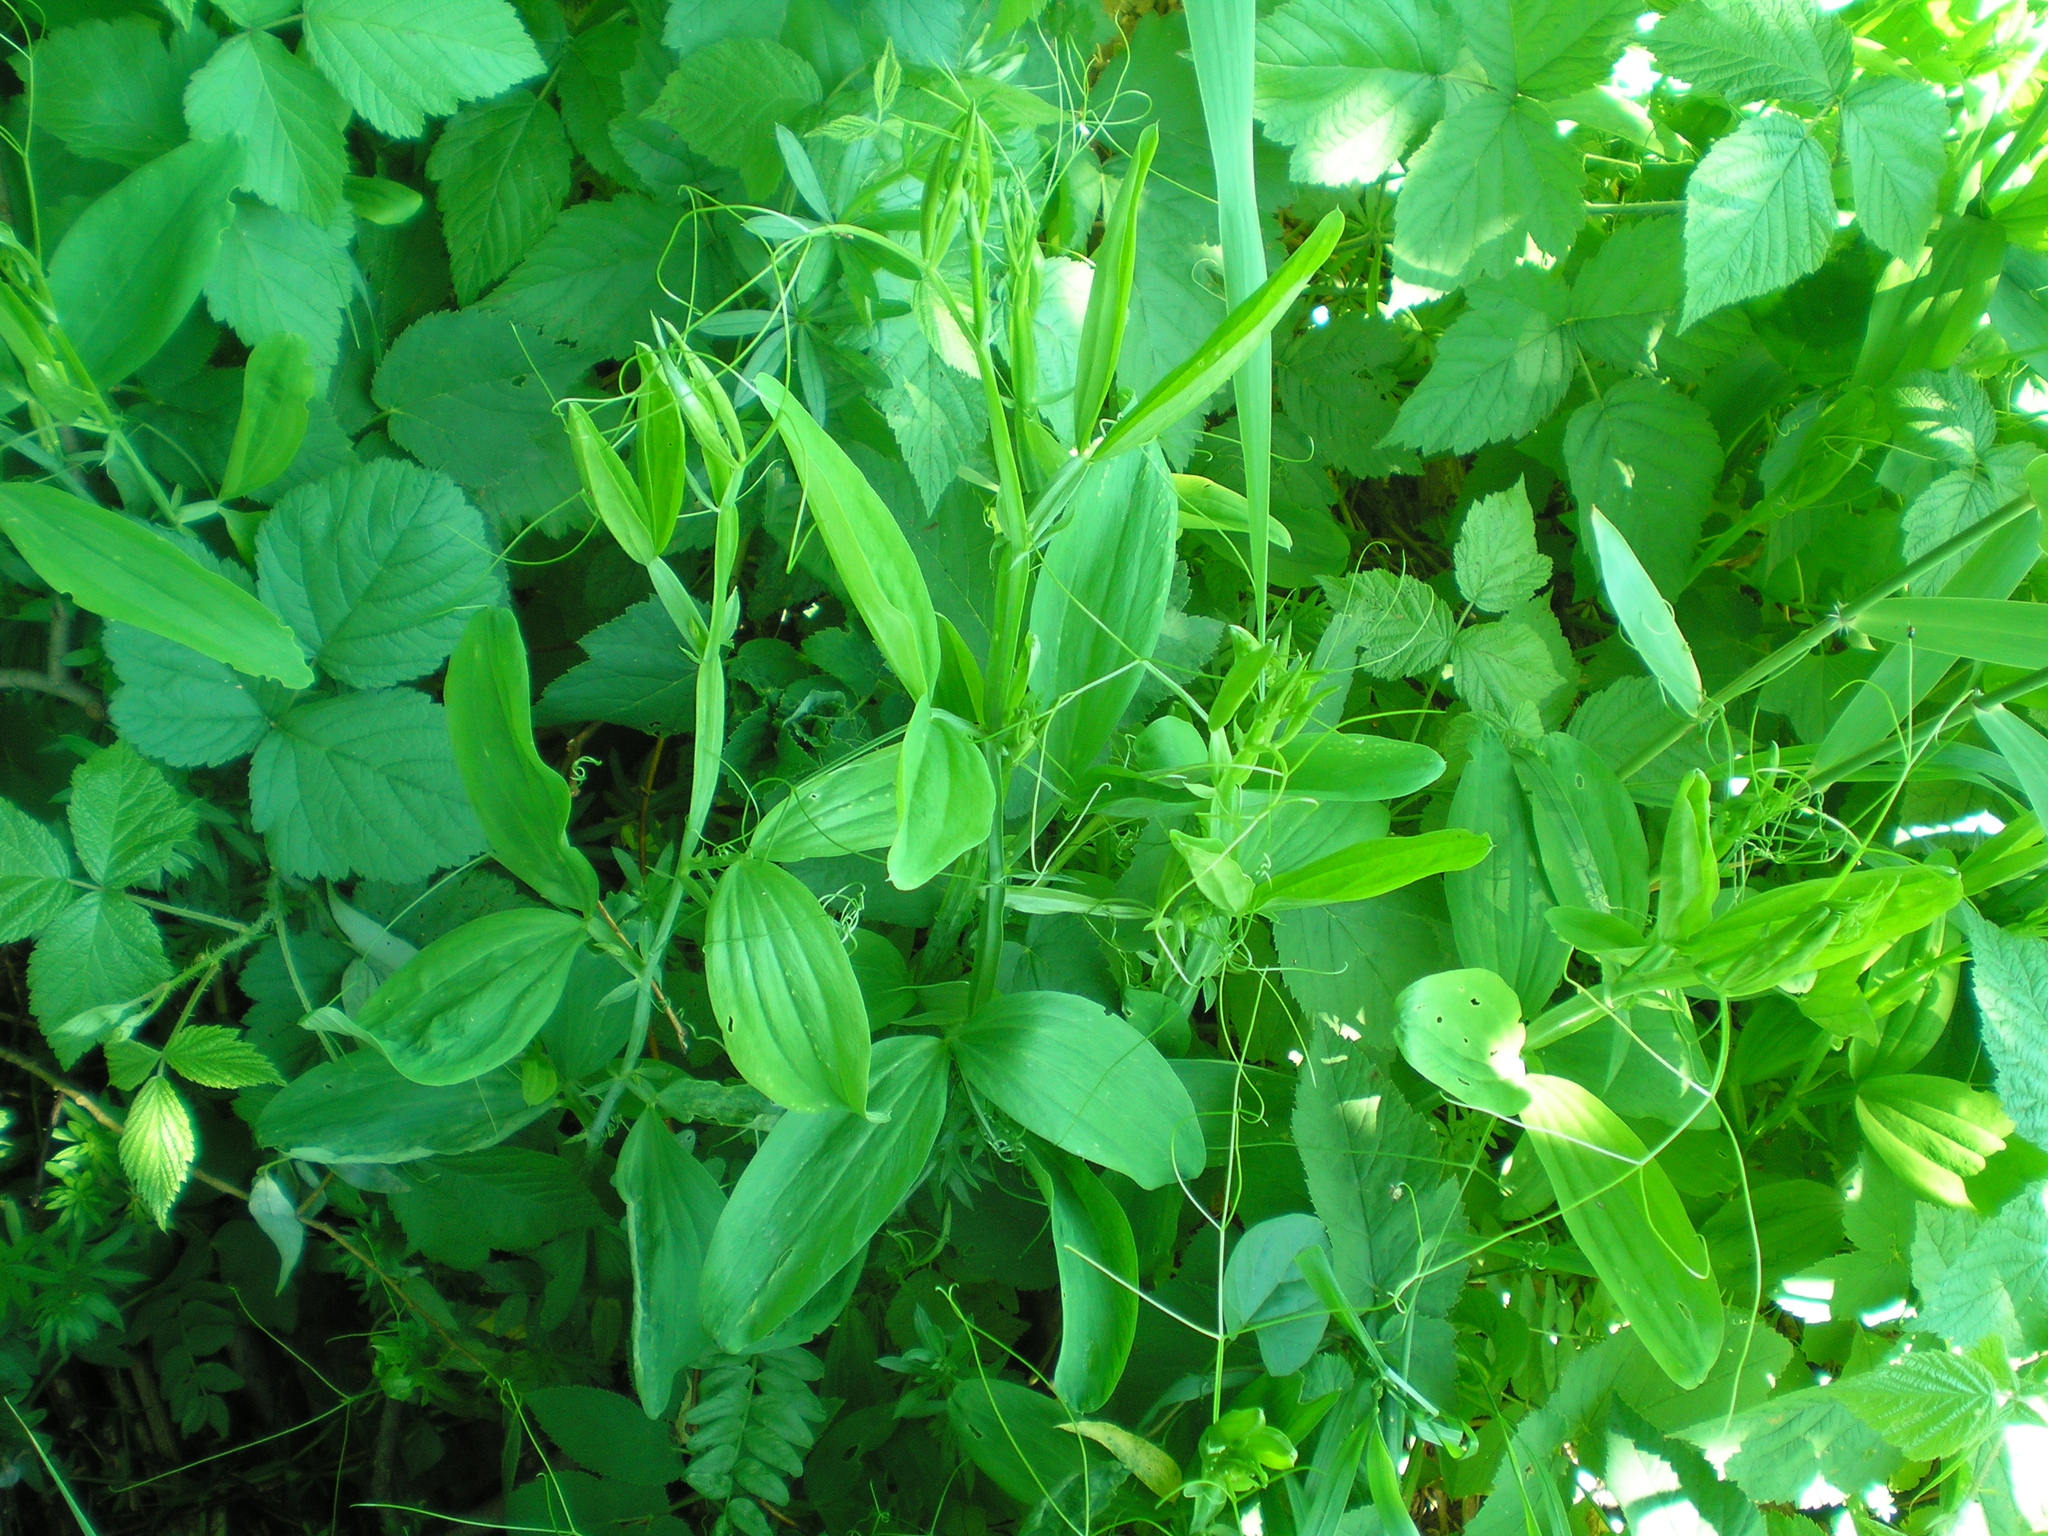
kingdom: Plantae
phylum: Tracheophyta
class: Magnoliopsida
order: Fabales
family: Fabaceae
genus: Lathyrus
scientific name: Lathyrus sylvestris
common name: Flat pea
